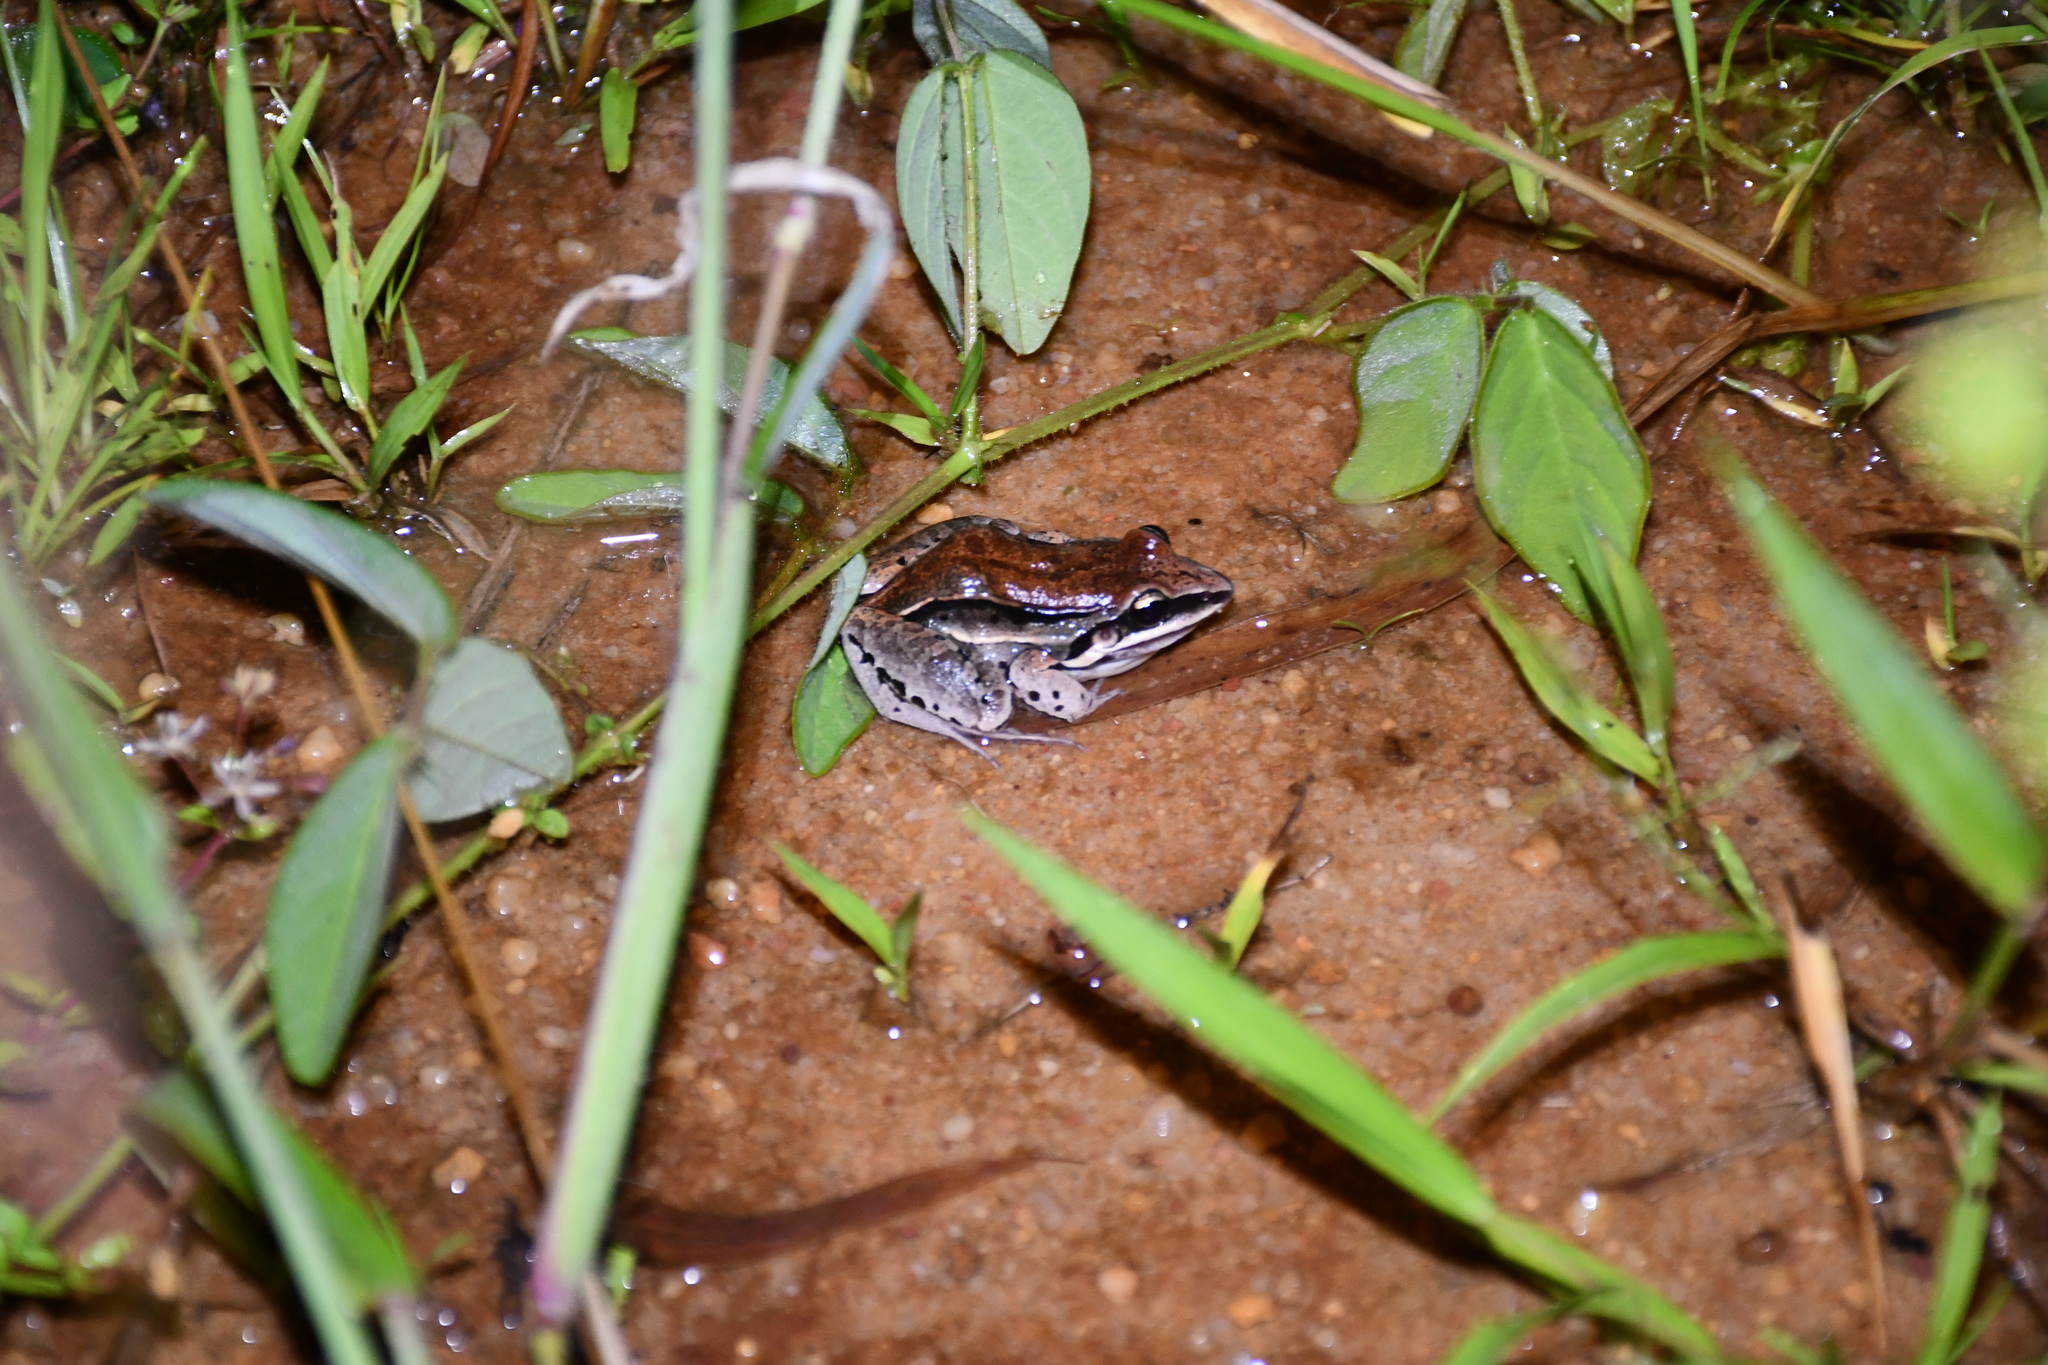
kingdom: Animalia
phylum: Chordata
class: Amphibia
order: Anura
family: Leptodactylidae
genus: Leptodactylus
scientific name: Leptodactylus mystaceus
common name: Amazonian white-lipped frog
